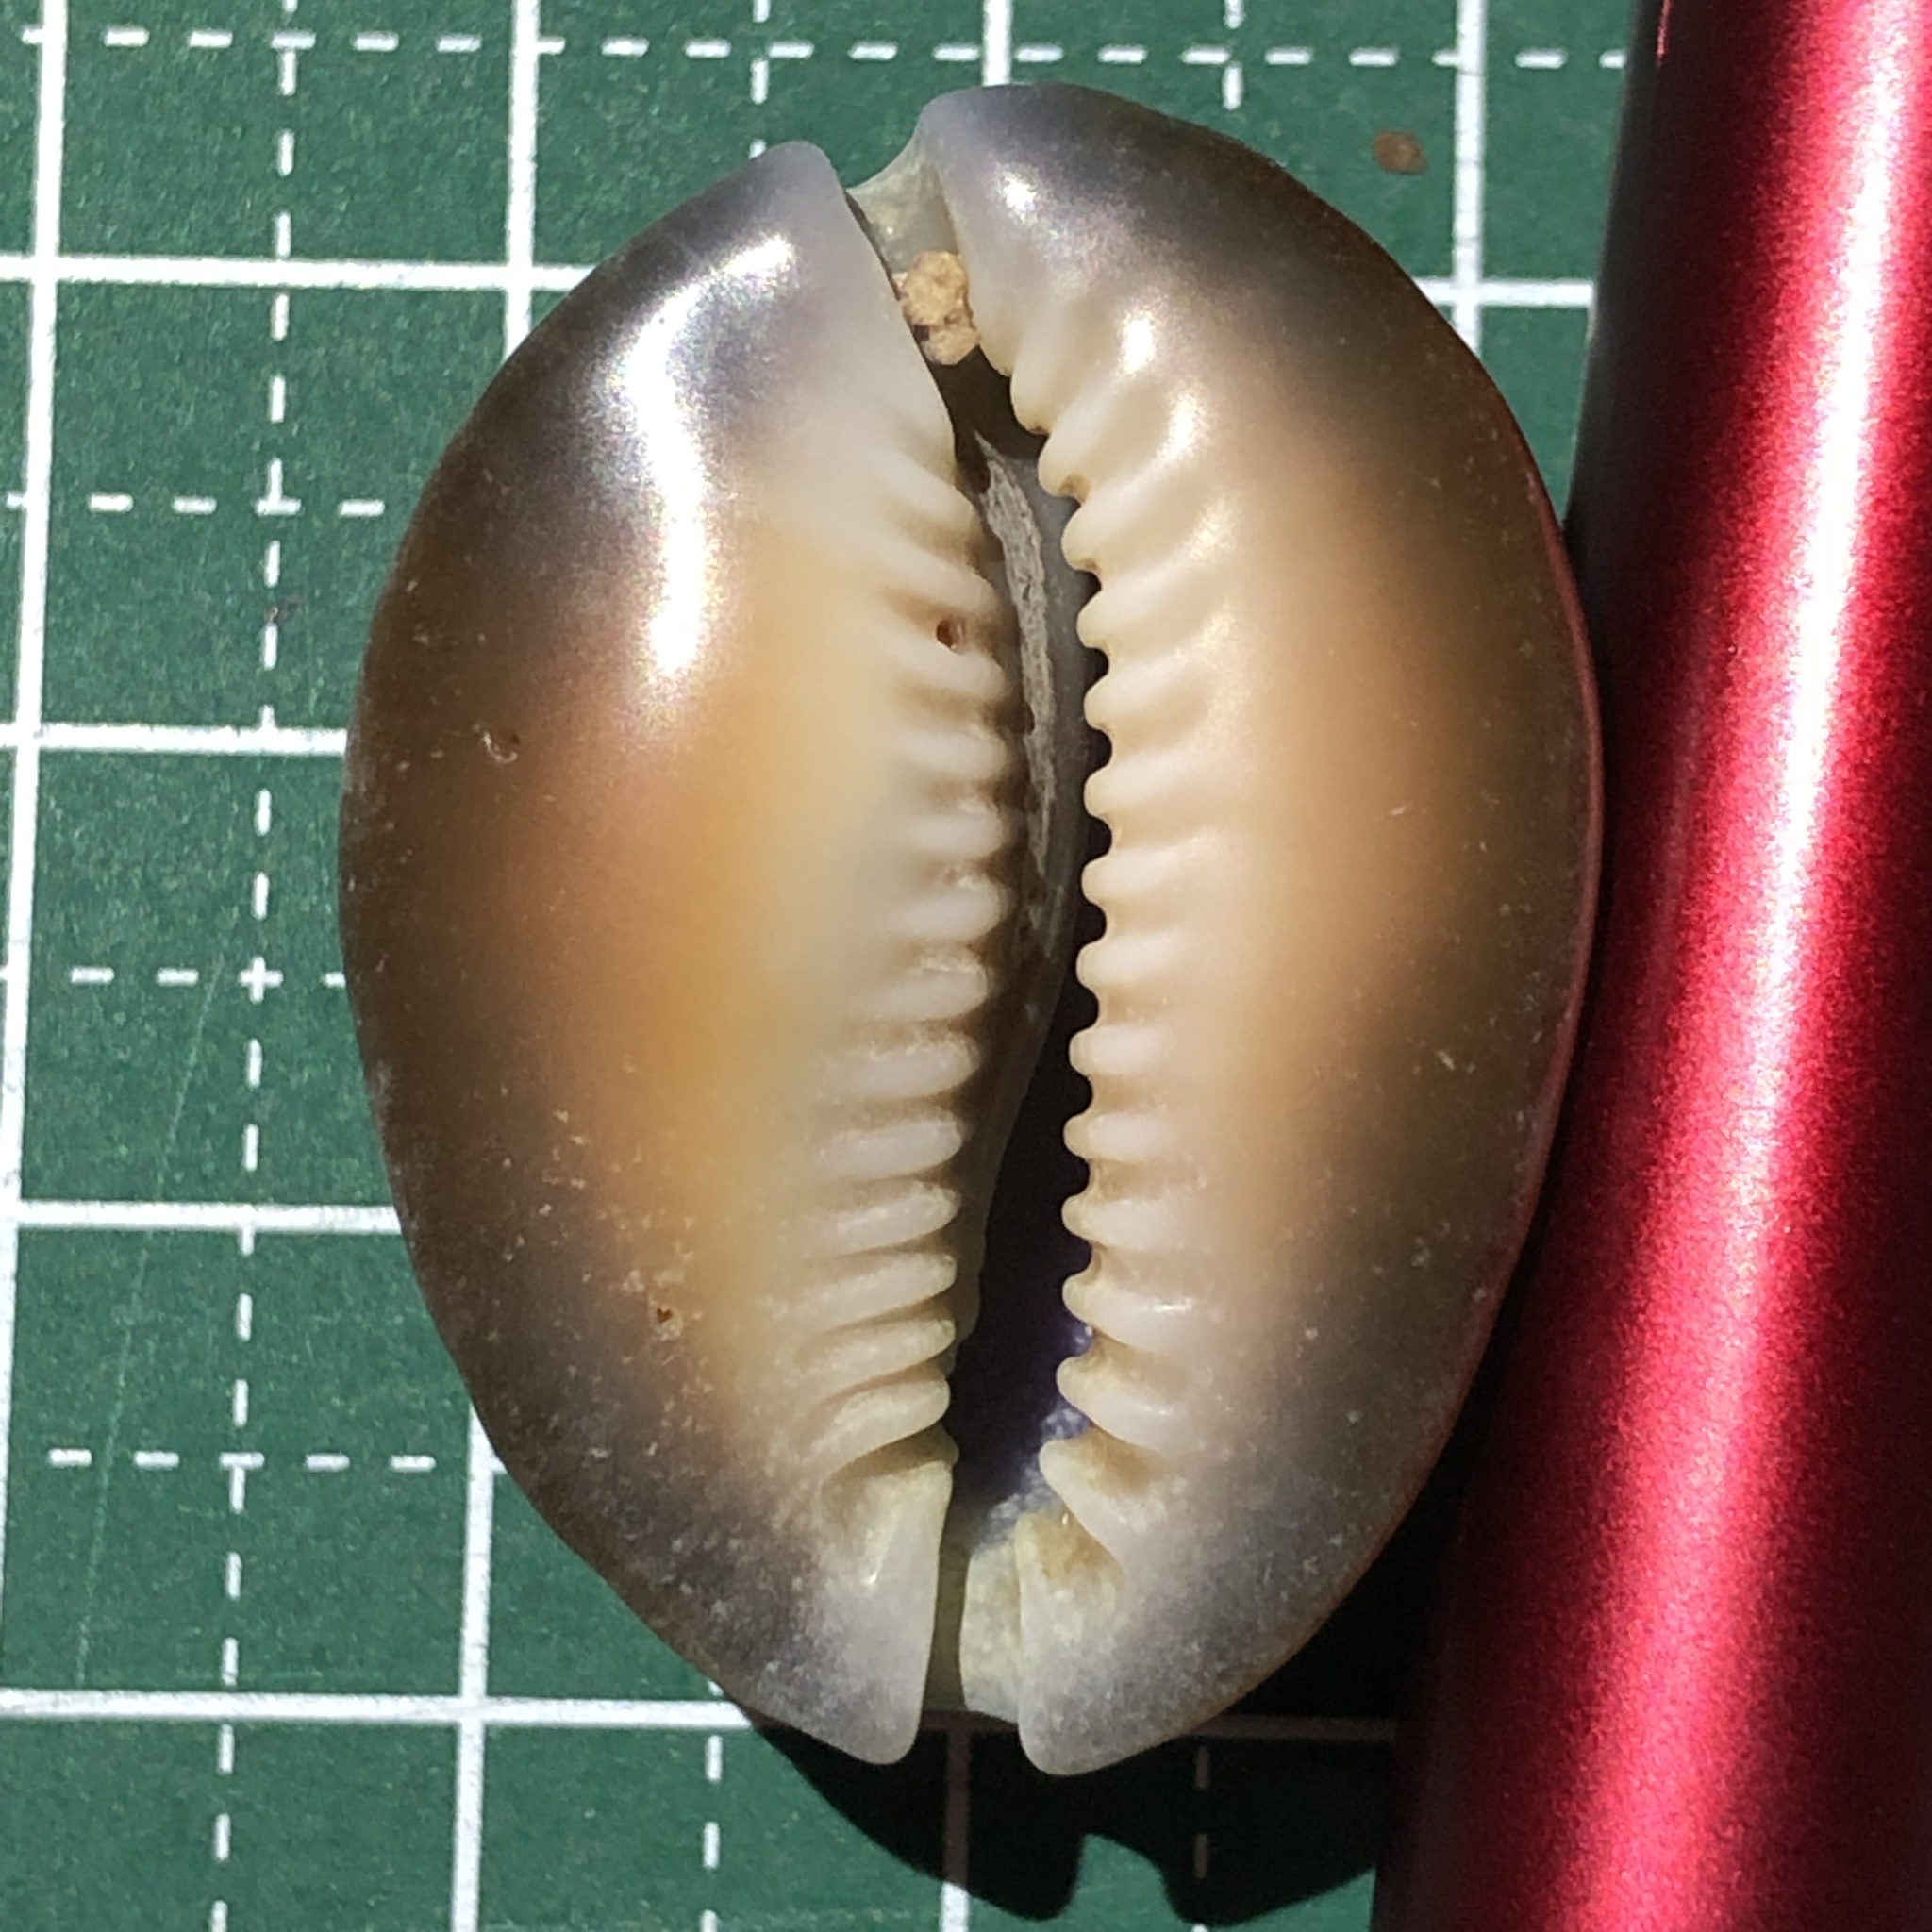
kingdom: Animalia
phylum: Mollusca
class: Gastropoda
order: Littorinimorpha
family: Cypraeidae
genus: Monetaria
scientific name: Monetaria caputserpentis
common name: Serpent's head cowrie
